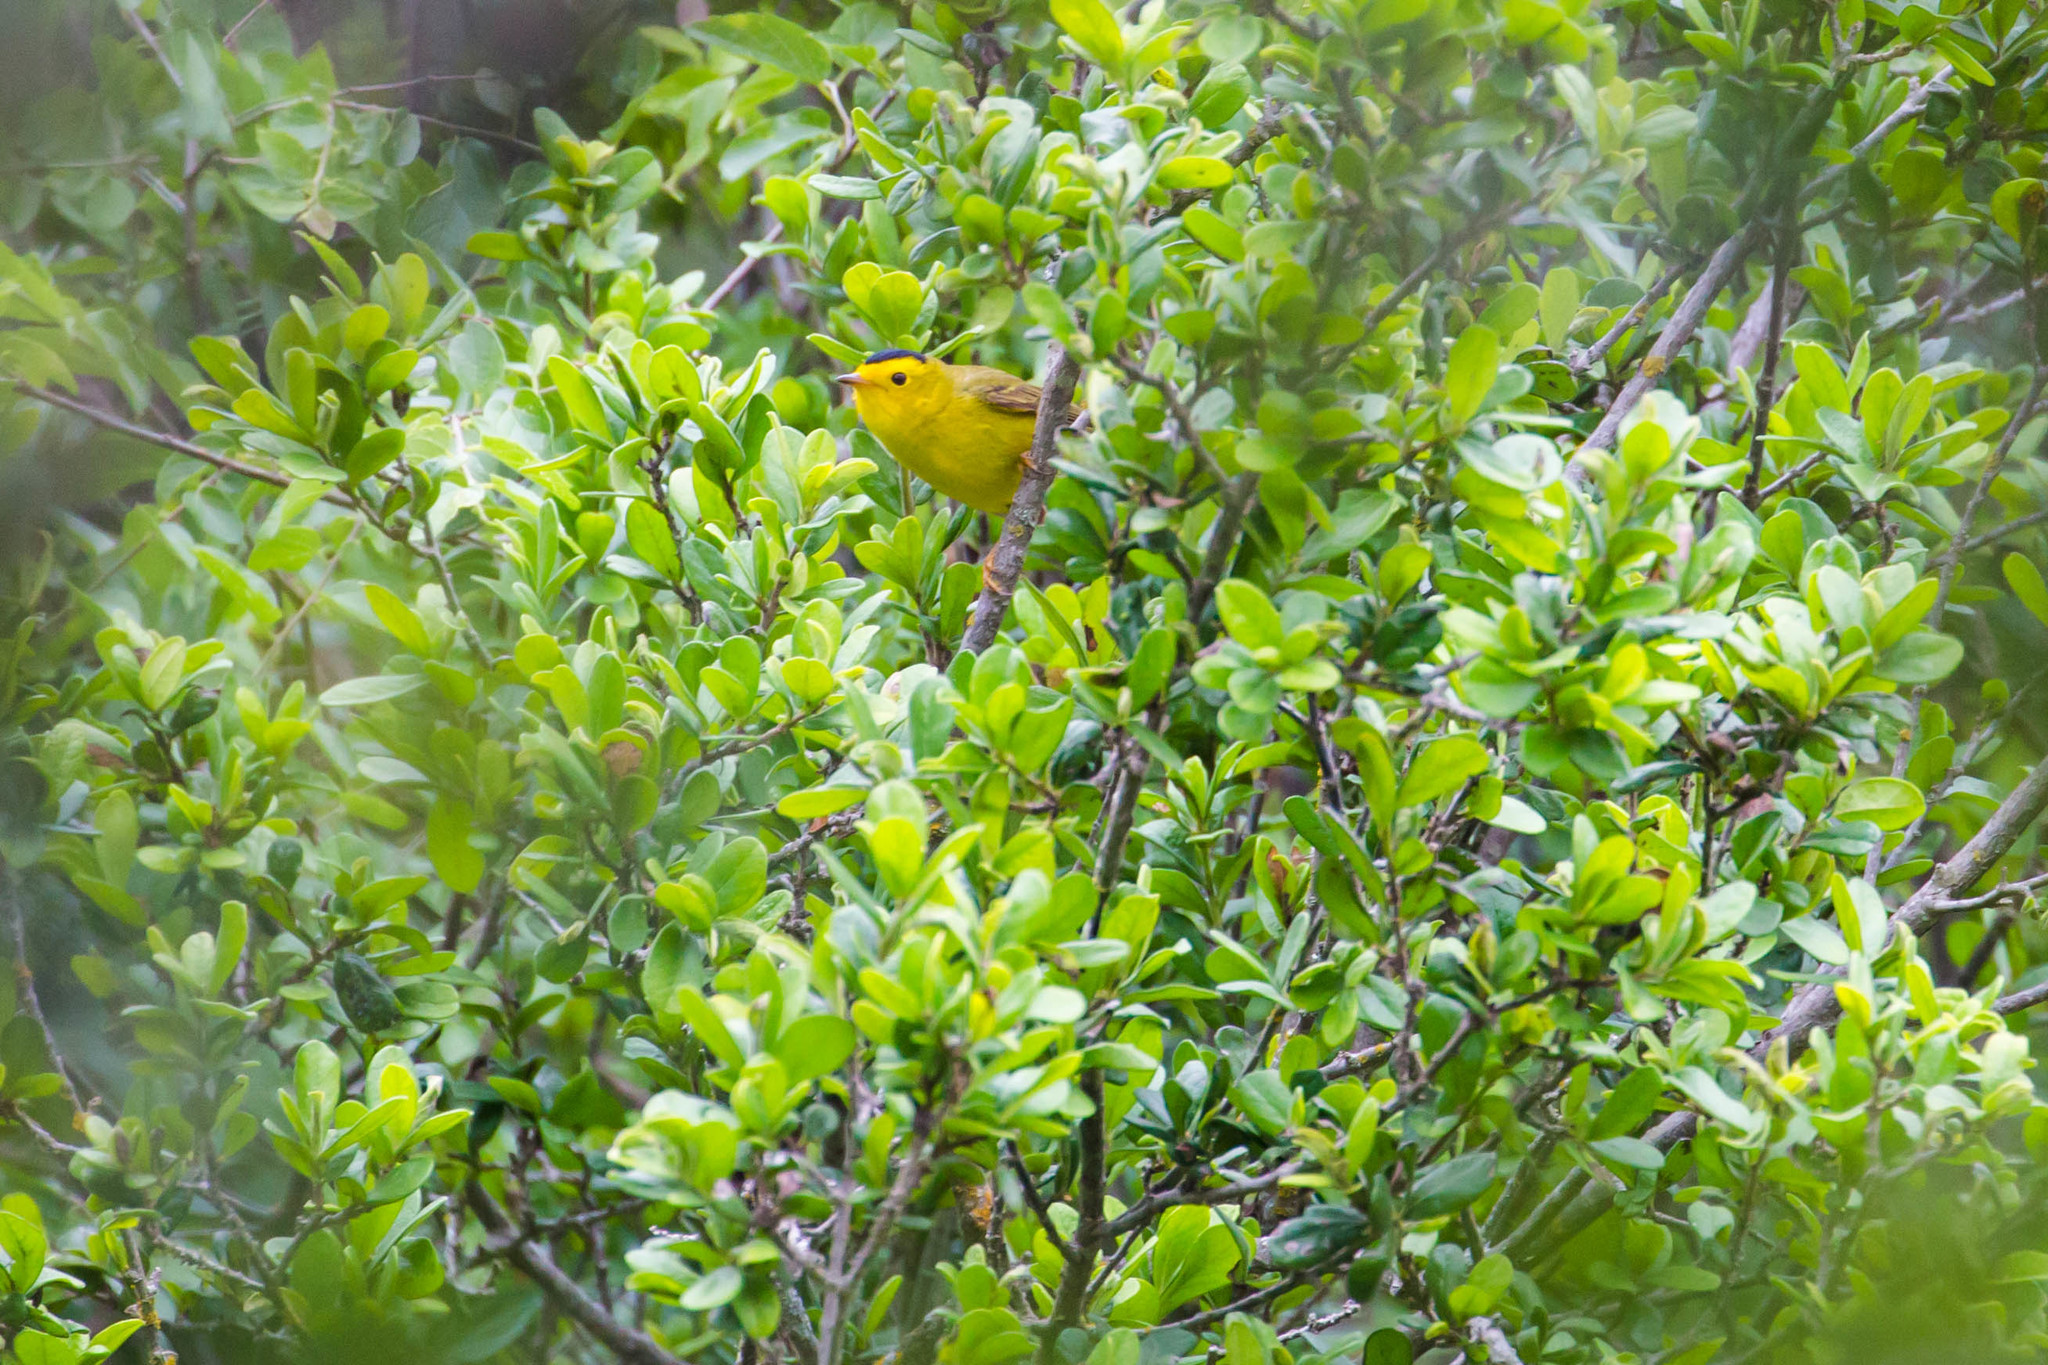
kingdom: Animalia
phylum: Chordata
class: Aves
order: Passeriformes
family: Parulidae
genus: Cardellina
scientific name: Cardellina pusilla
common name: Wilson's warbler
